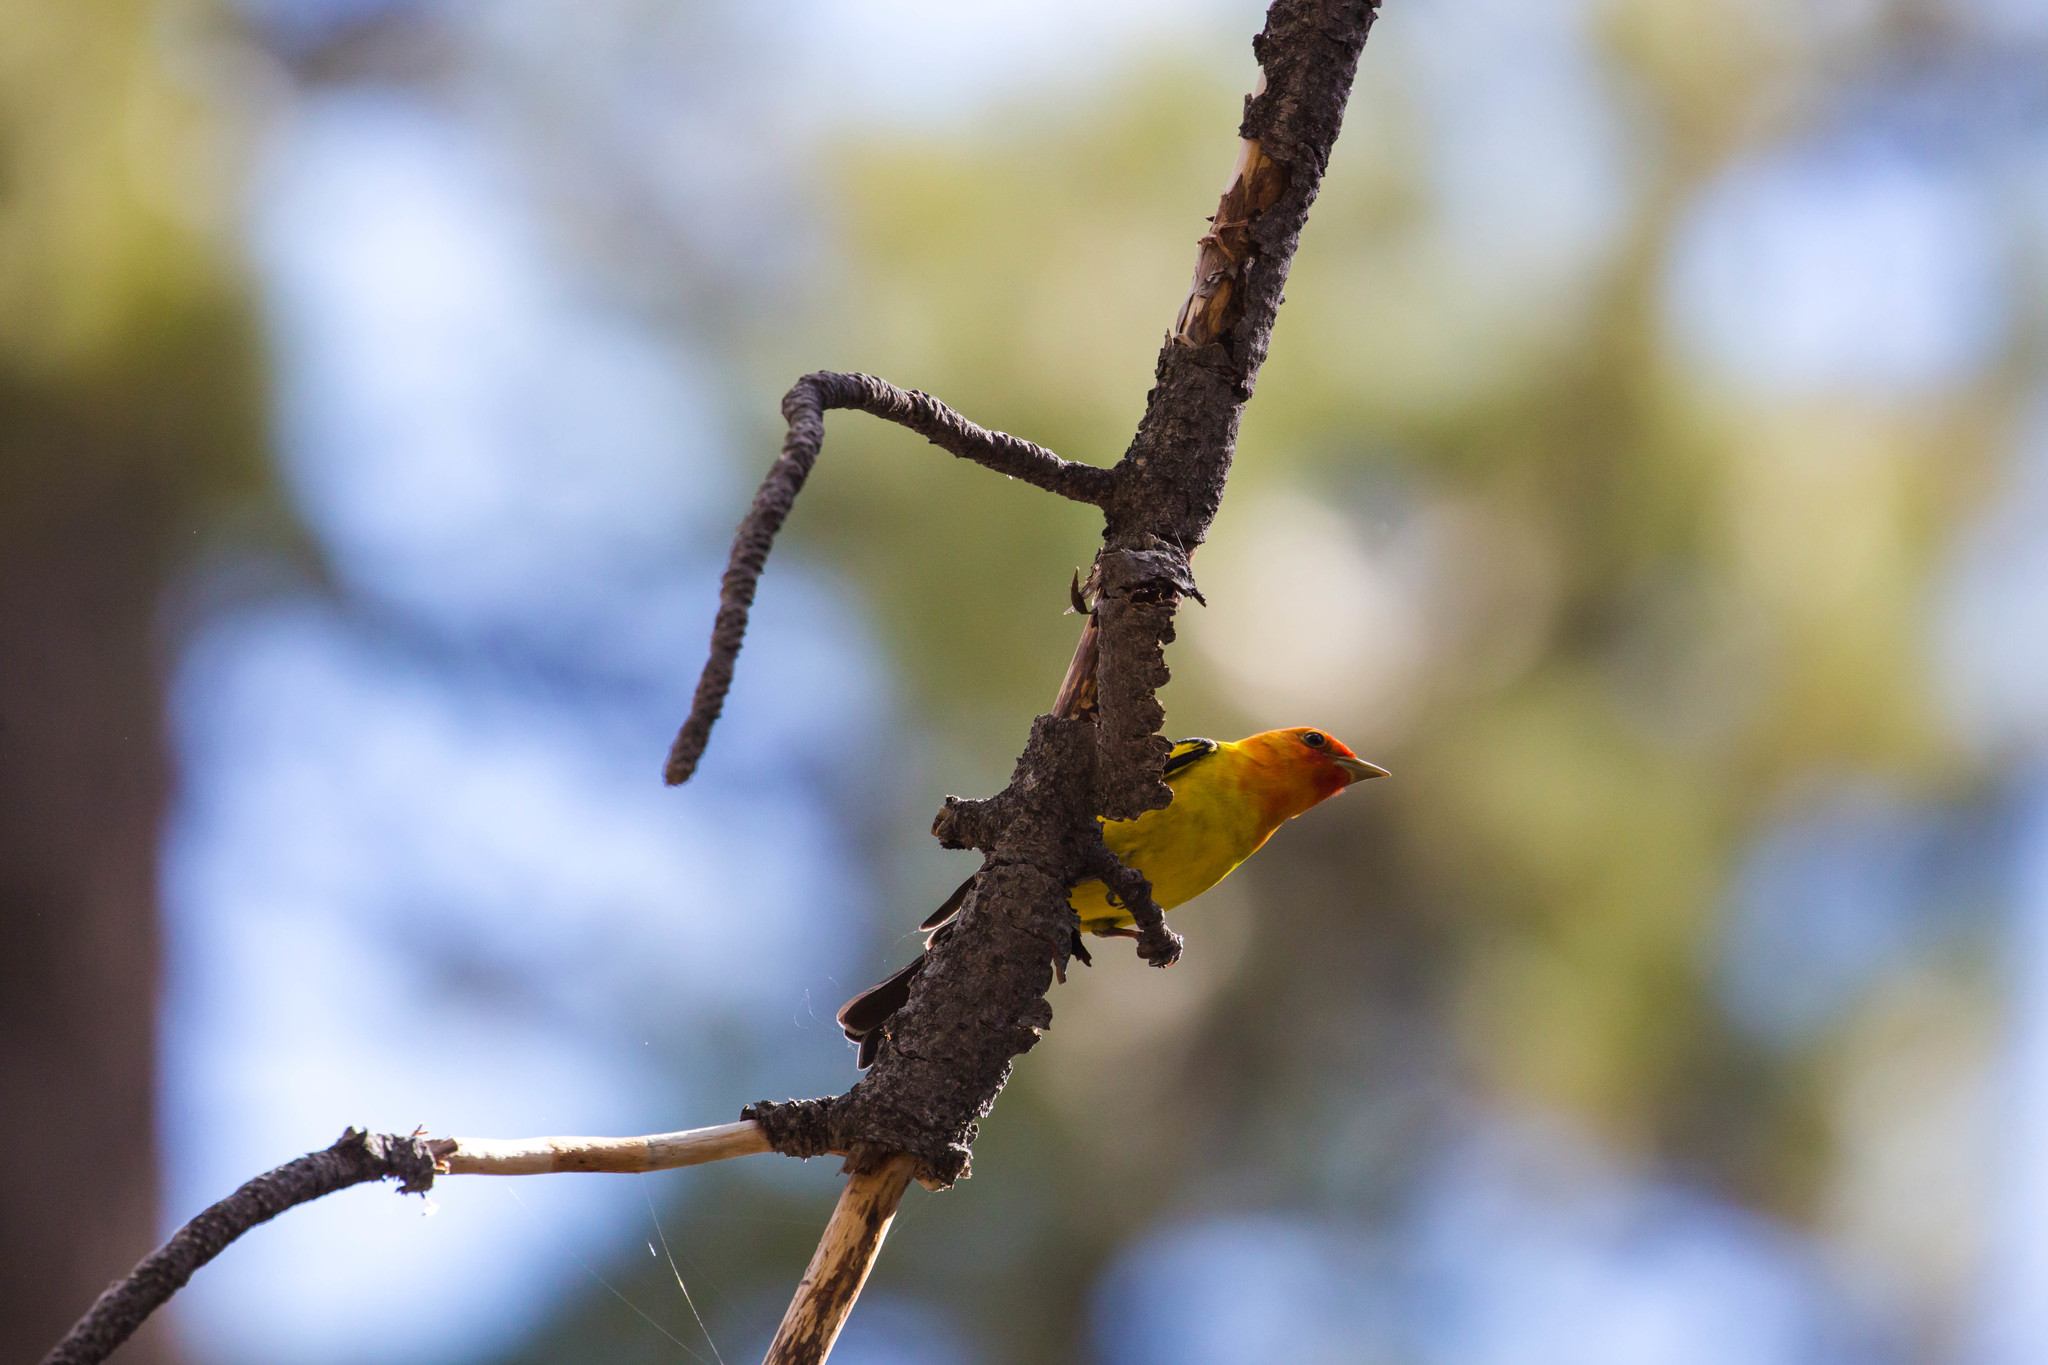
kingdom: Animalia
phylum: Chordata
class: Aves
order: Passeriformes
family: Cardinalidae
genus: Piranga
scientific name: Piranga ludoviciana
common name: Western tanager
